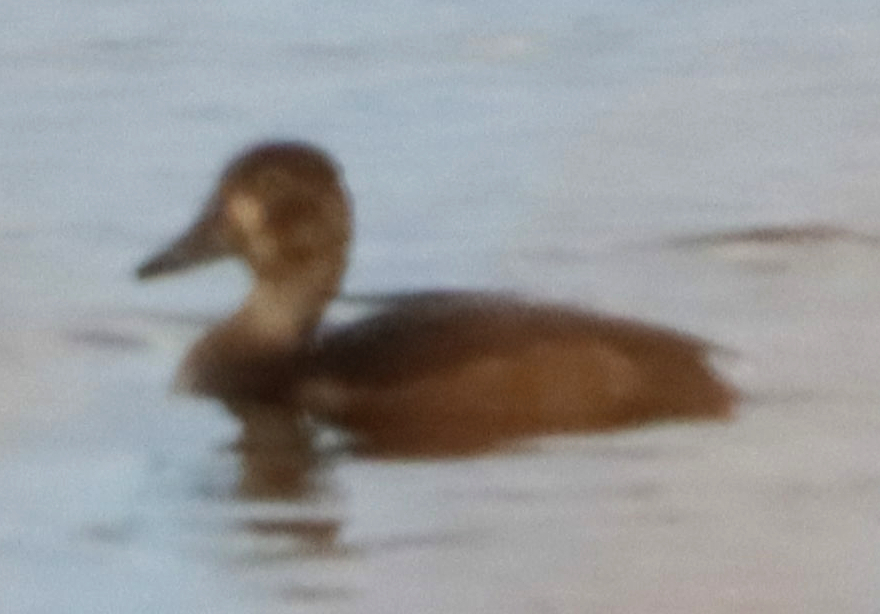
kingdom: Animalia
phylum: Chordata
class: Aves
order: Anseriformes
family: Anatidae
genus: Aythya
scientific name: Aythya collaris
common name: Ring-necked duck
